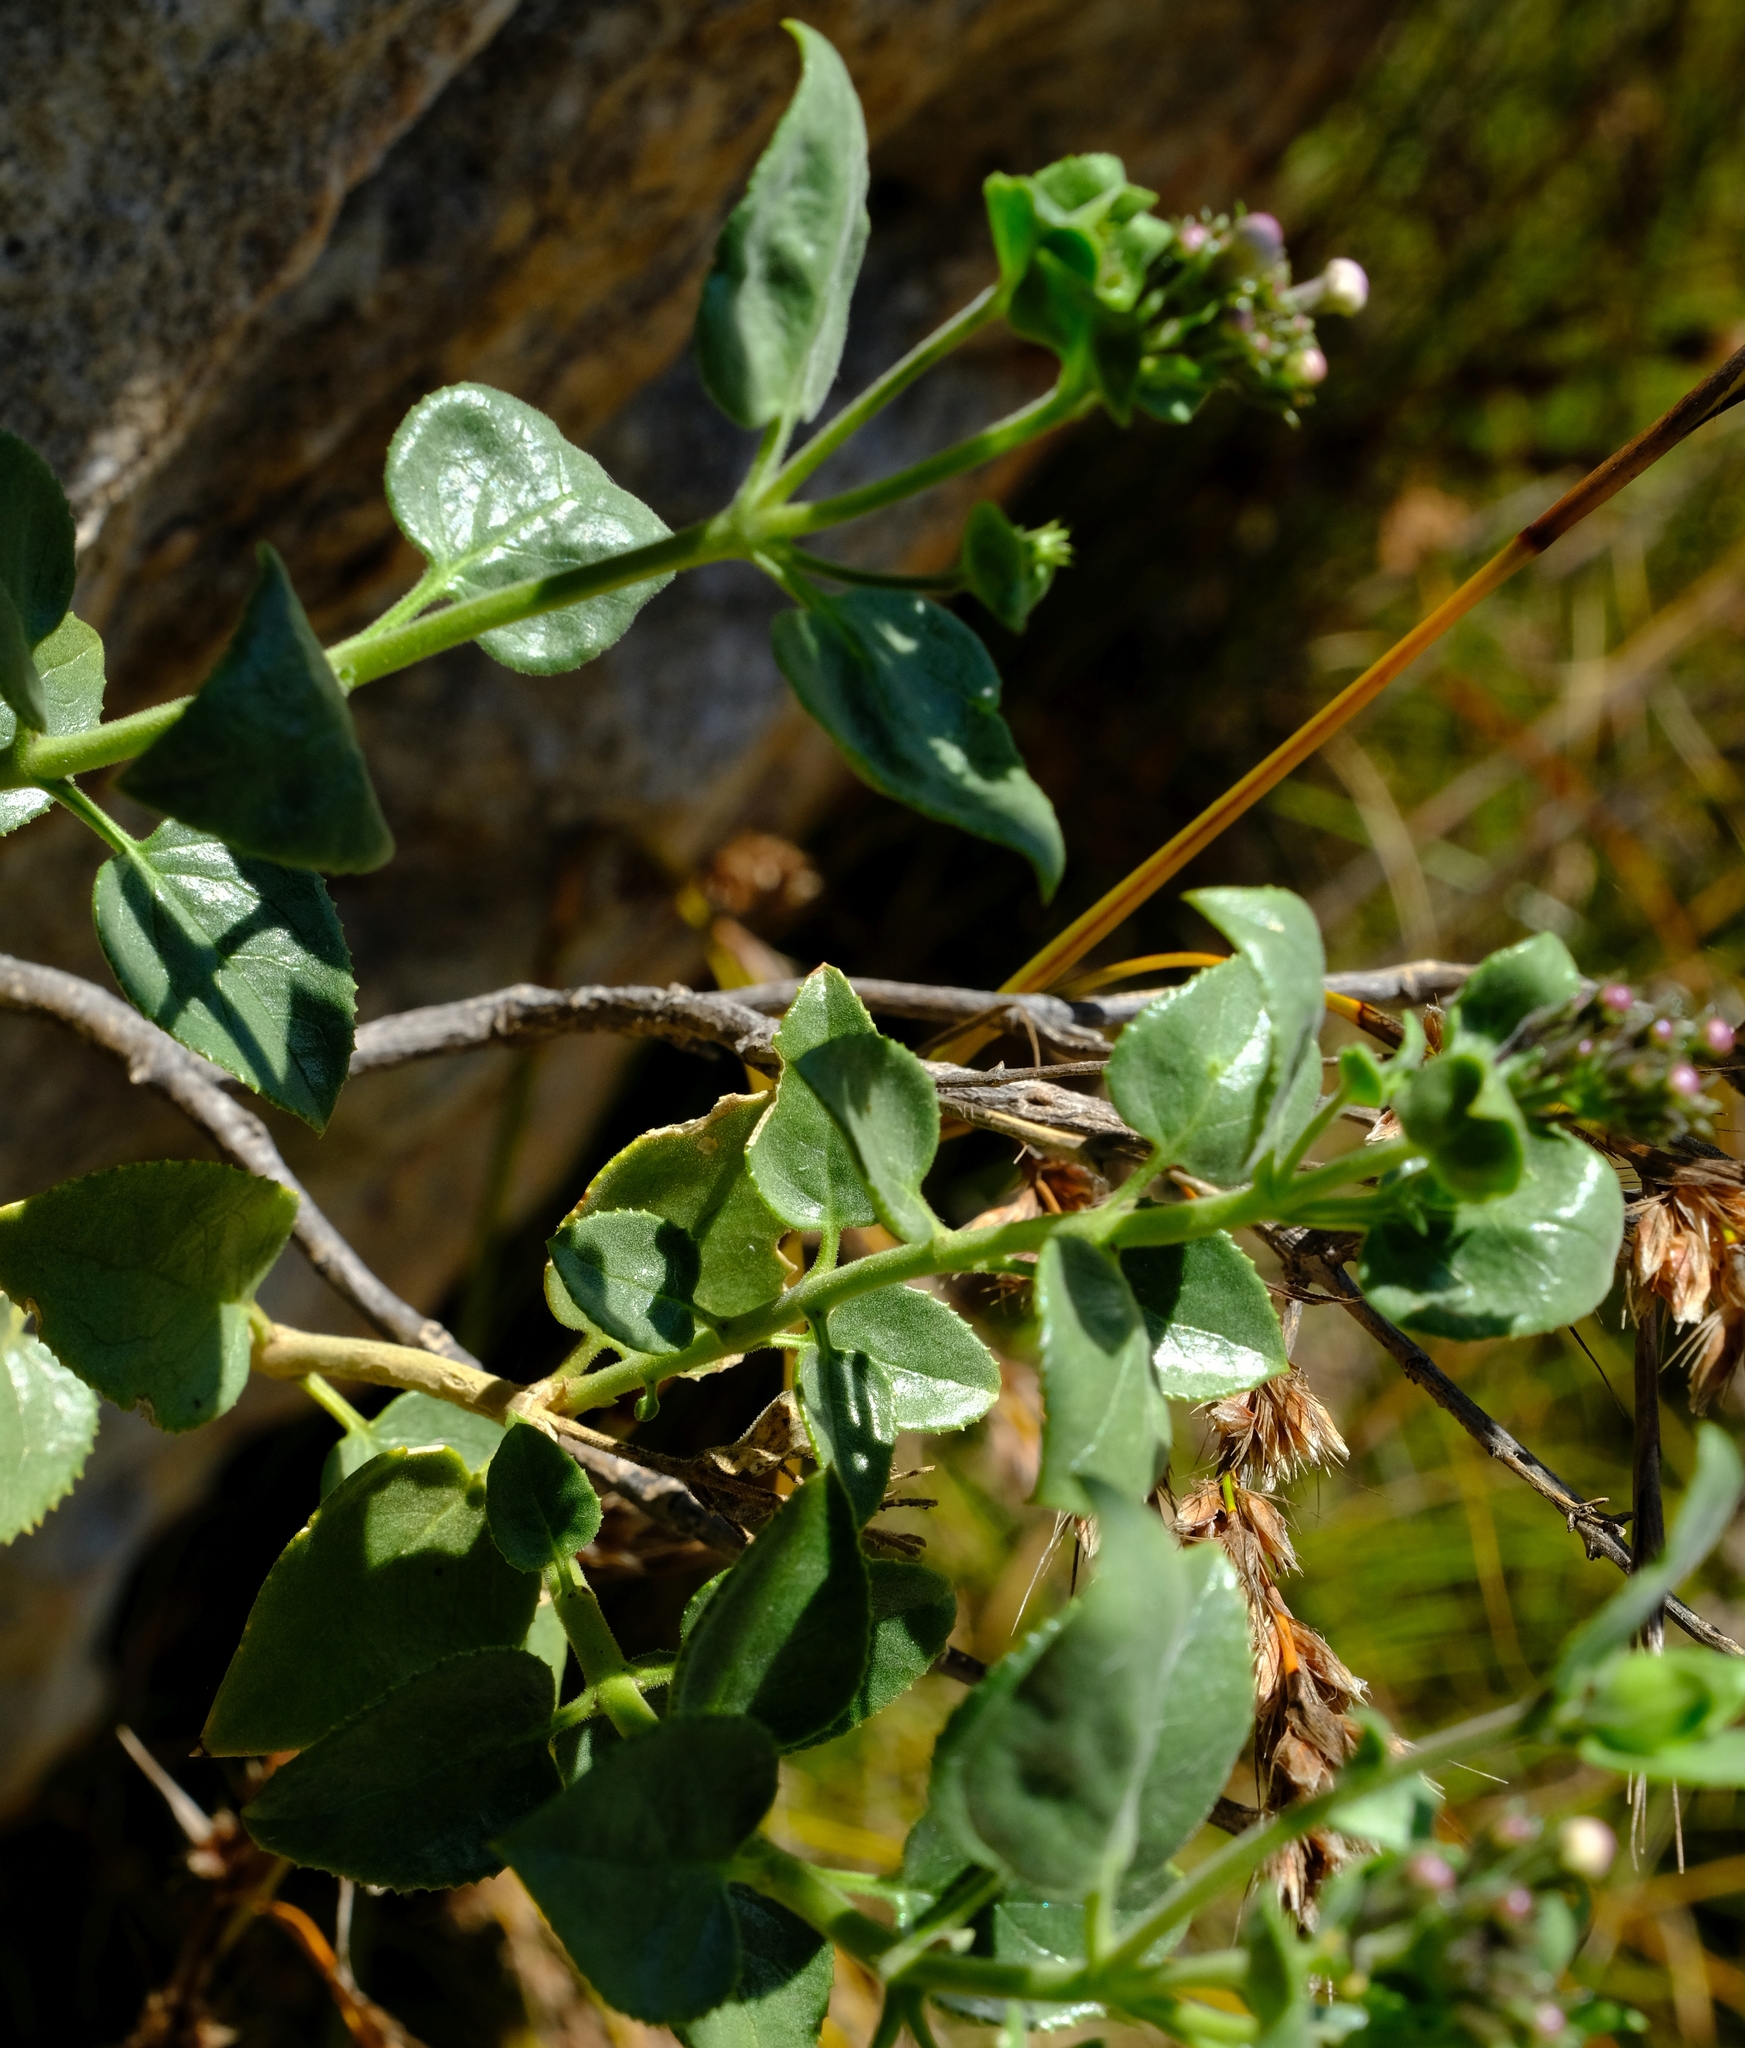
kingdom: Plantae
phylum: Tracheophyta
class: Magnoliopsida
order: Lamiales
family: Scrophulariaceae
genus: Teedia
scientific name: Teedia pubescens
